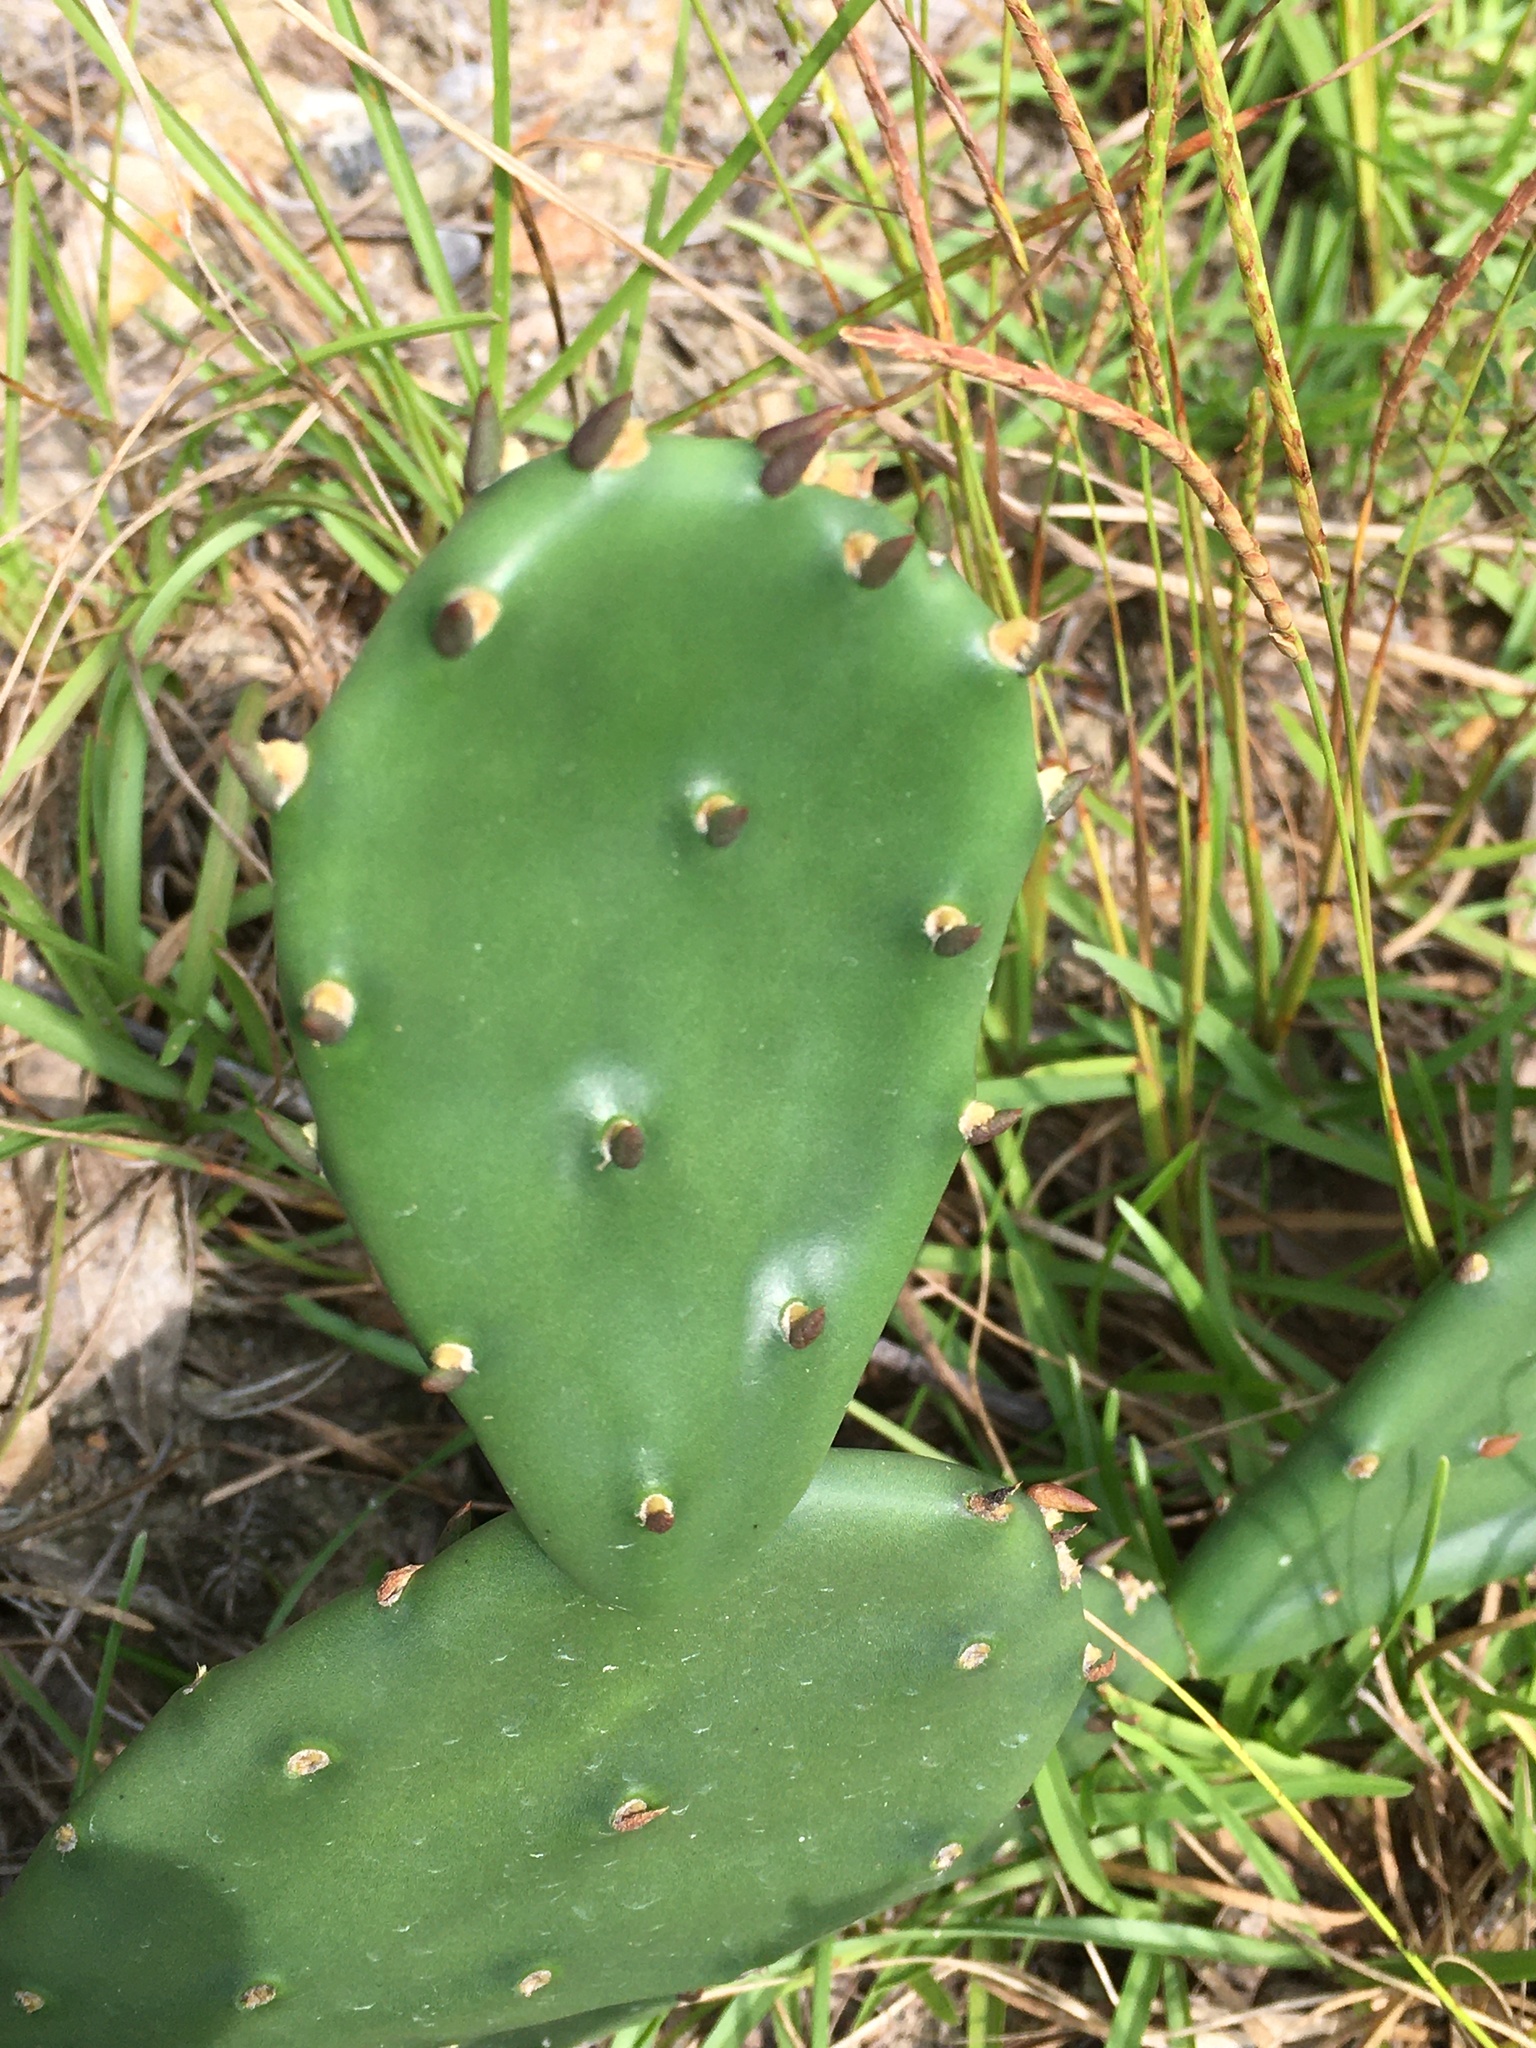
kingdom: Plantae
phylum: Tracheophyta
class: Magnoliopsida
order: Caryophyllales
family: Cactaceae
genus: Opuntia
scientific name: Opuntia mesacantha
